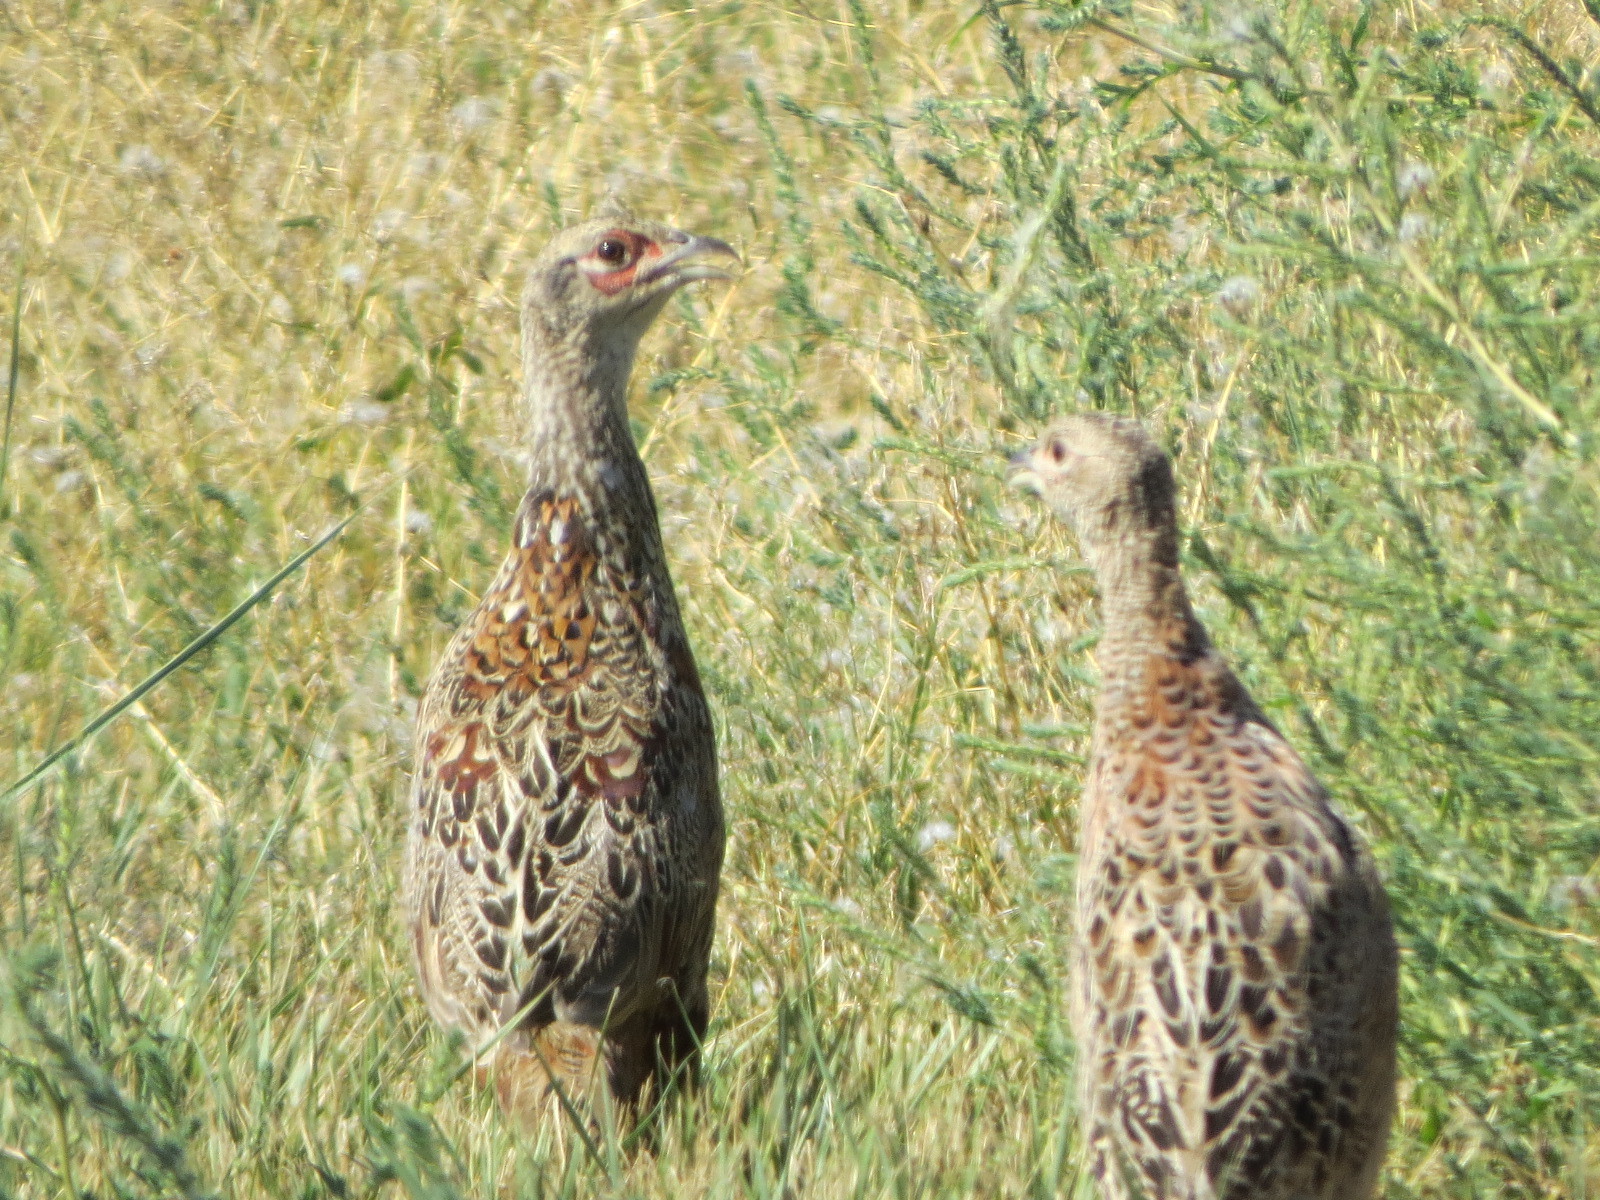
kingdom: Animalia
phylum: Chordata
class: Aves
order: Galliformes
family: Phasianidae
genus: Phasianus
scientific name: Phasianus colchicus
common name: Common pheasant
